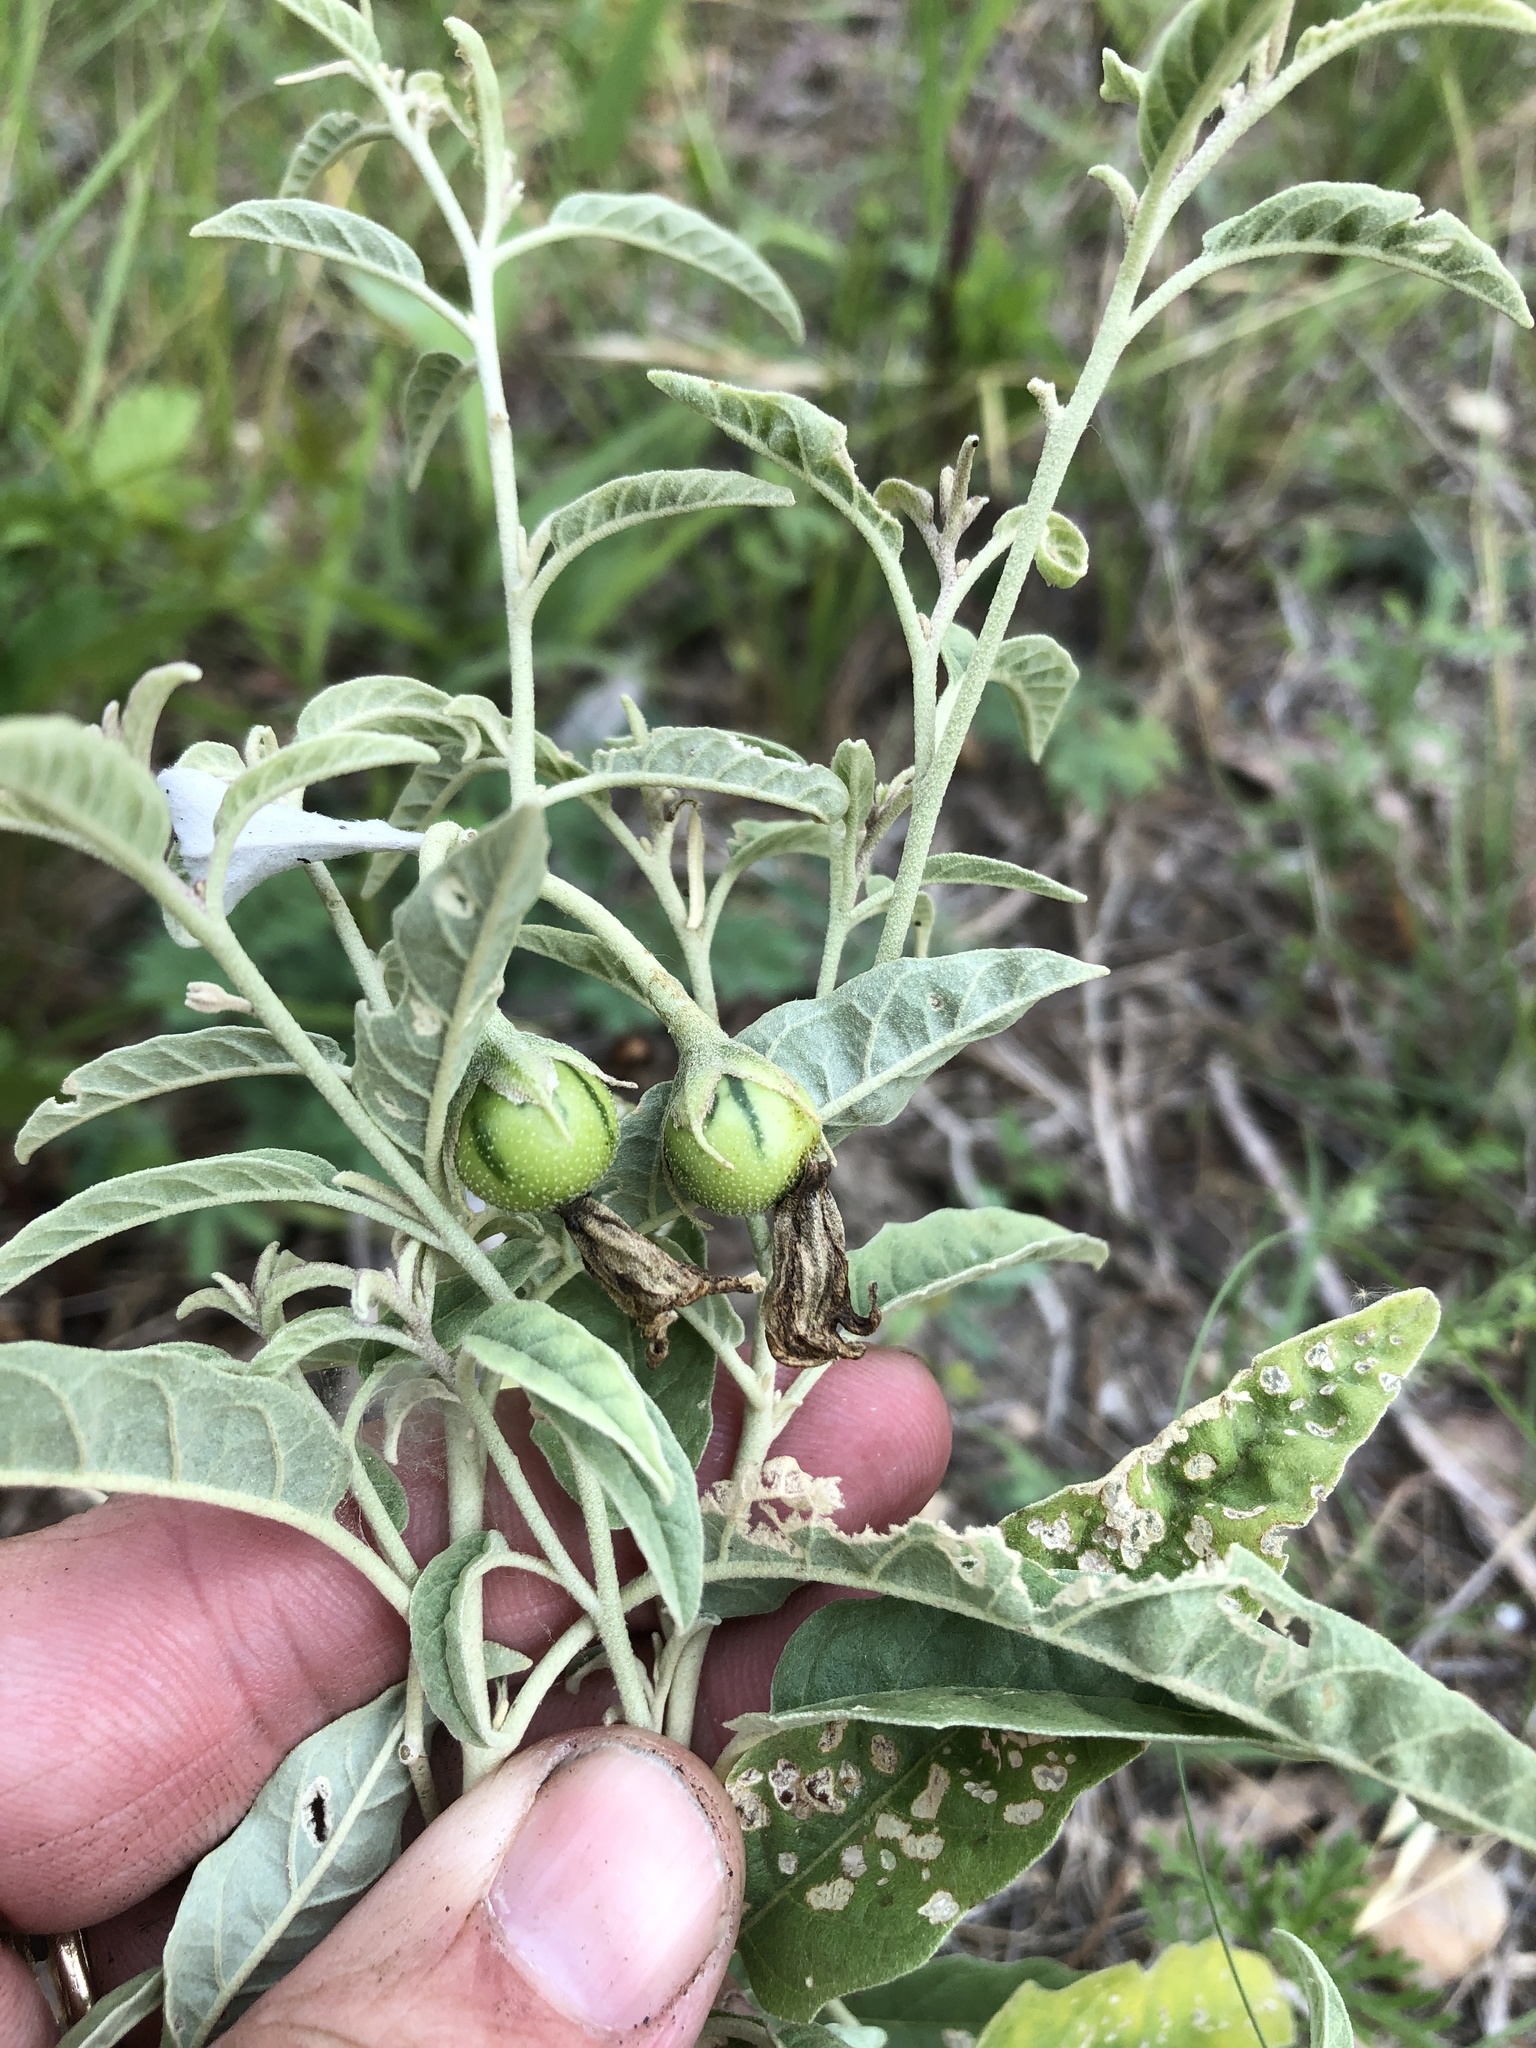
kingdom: Plantae
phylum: Tracheophyta
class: Magnoliopsida
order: Solanales
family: Solanaceae
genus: Solanum
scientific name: Solanum elaeagnifolium
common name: Silverleaf nightshade
